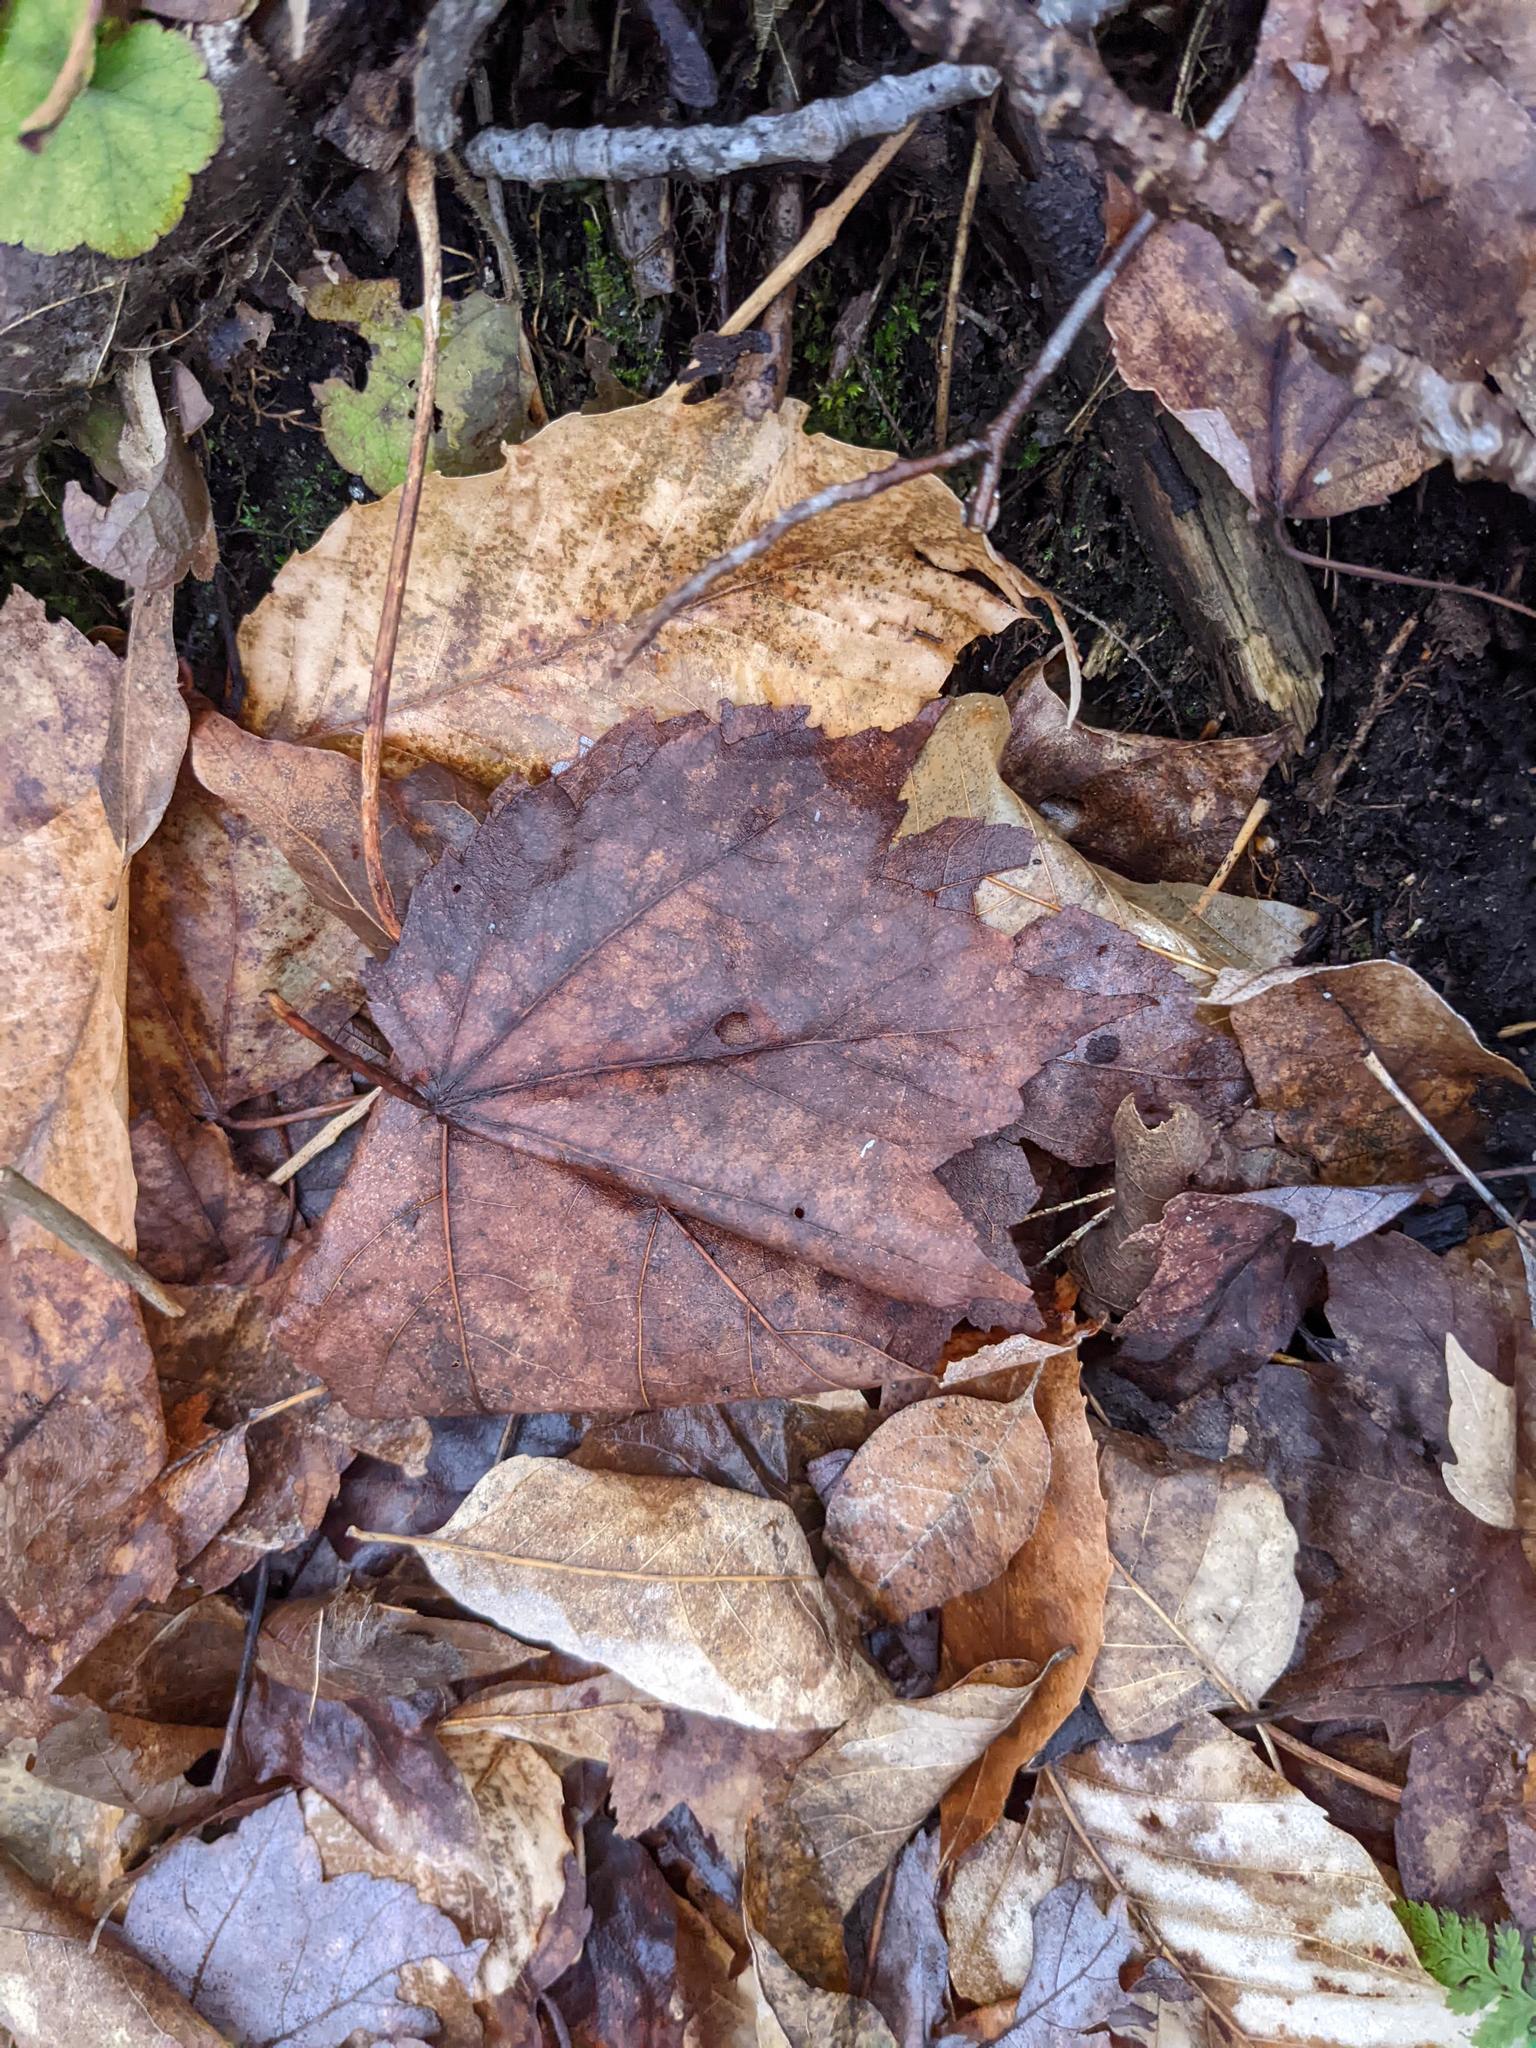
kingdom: Plantae
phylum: Tracheophyta
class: Magnoliopsida
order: Sapindales
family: Sapindaceae
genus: Acer
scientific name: Acer rubrum
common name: Red maple
